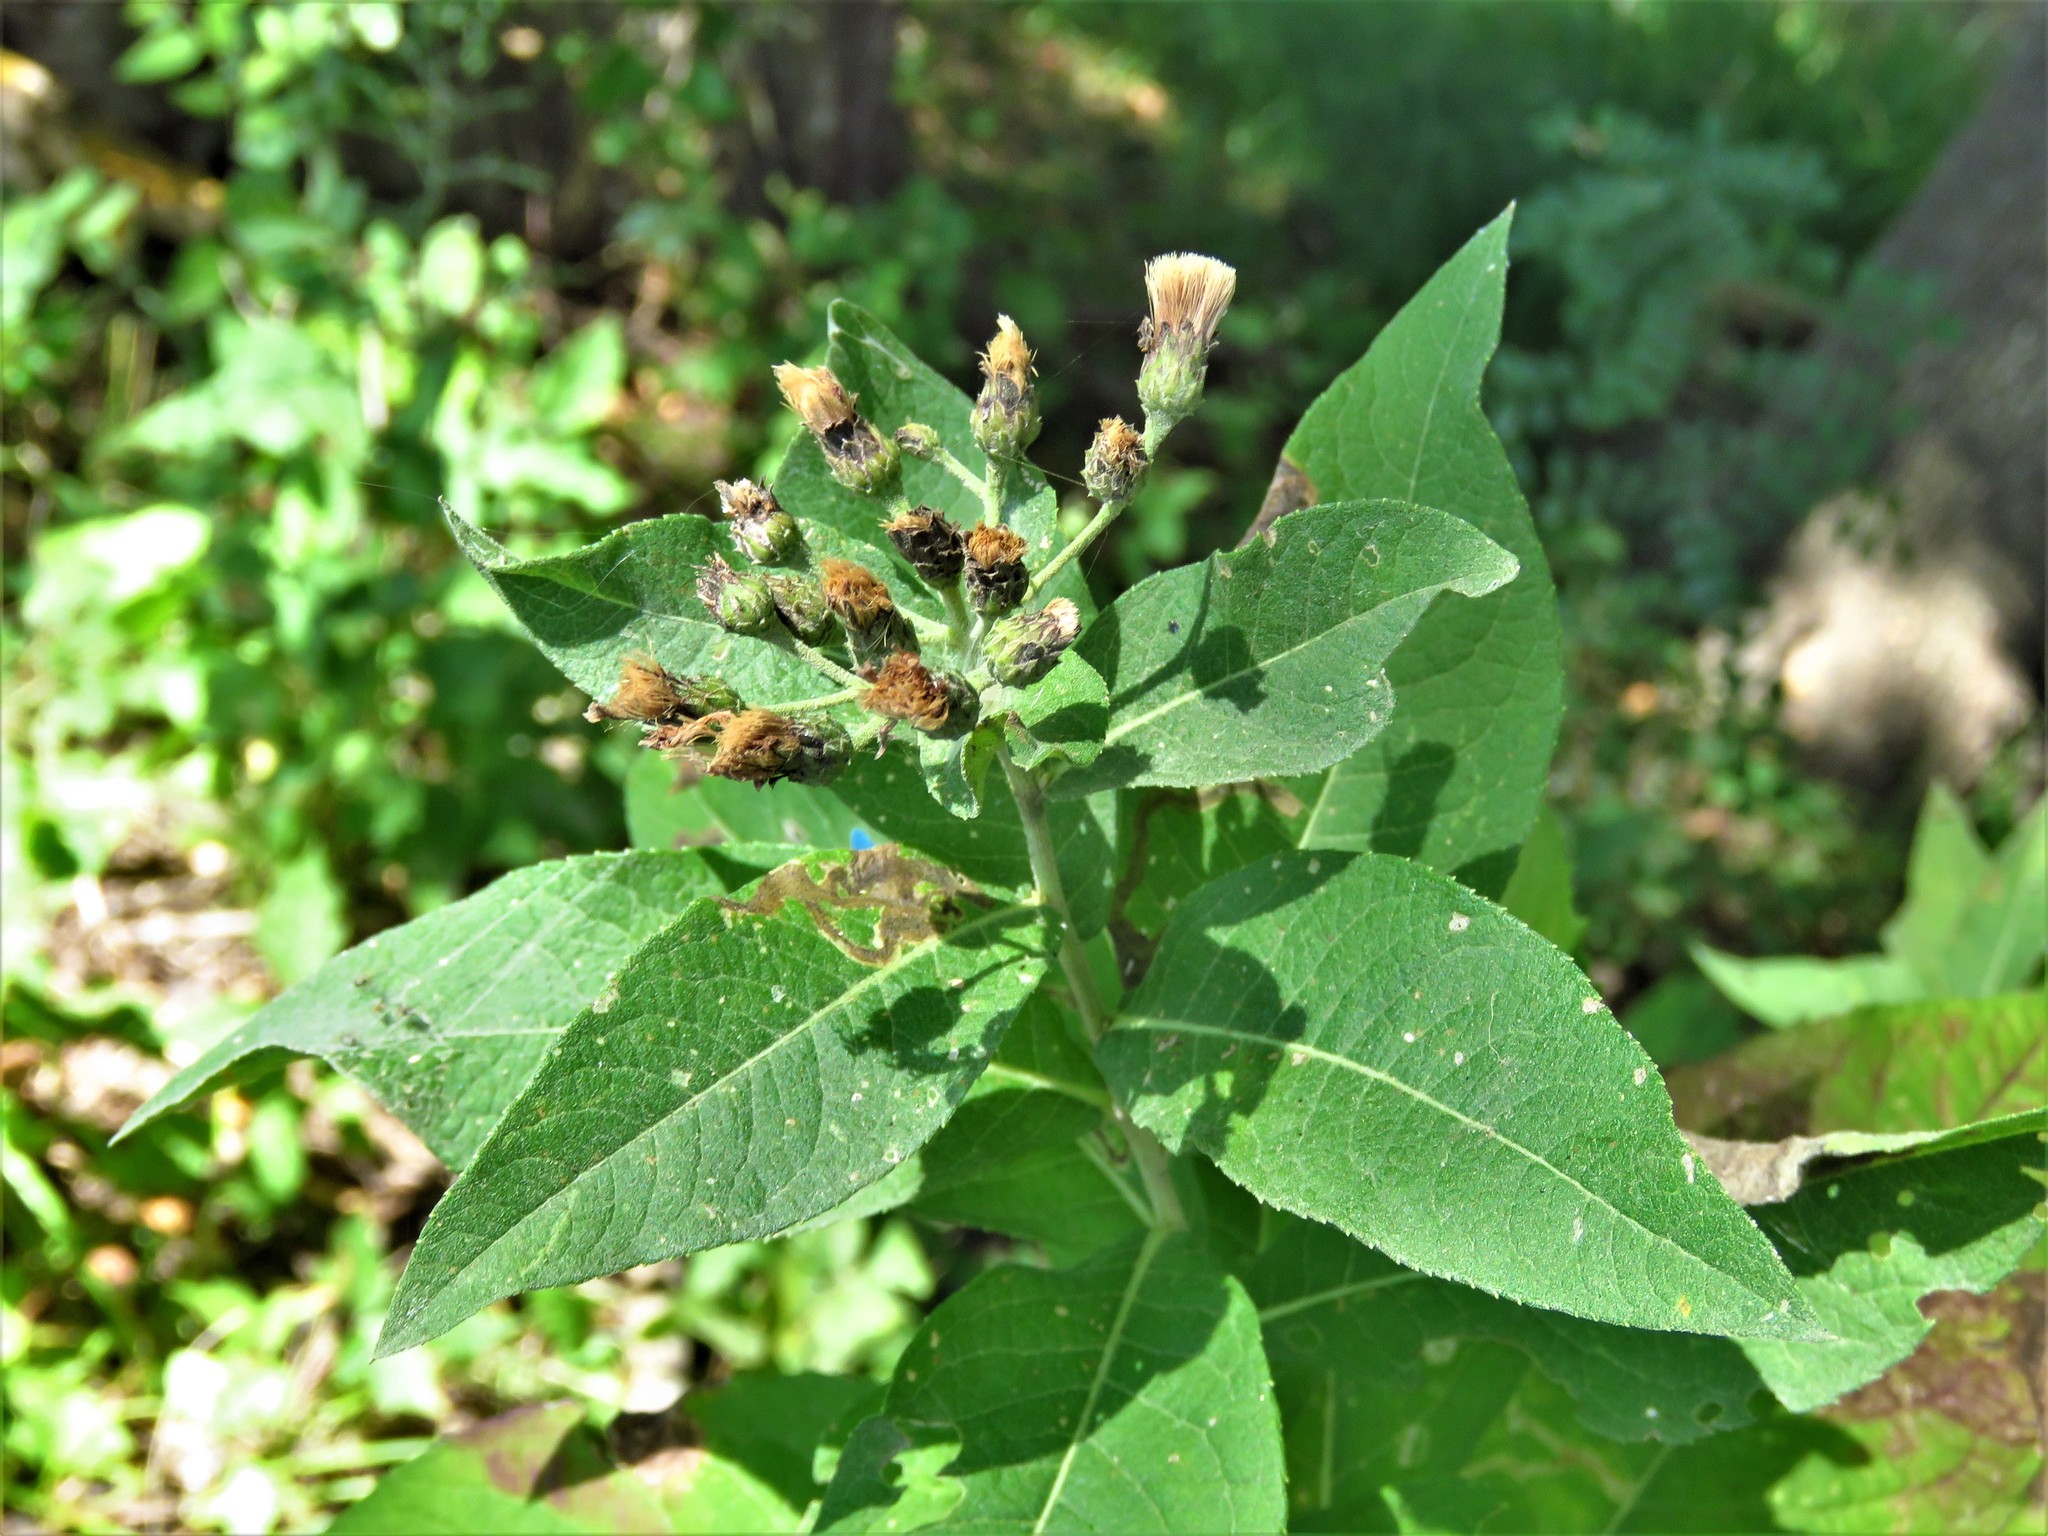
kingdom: Plantae
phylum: Tracheophyta
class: Magnoliopsida
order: Asterales
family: Asteraceae
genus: Vernonia
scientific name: Vernonia baldwinii
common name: Western ironweed
